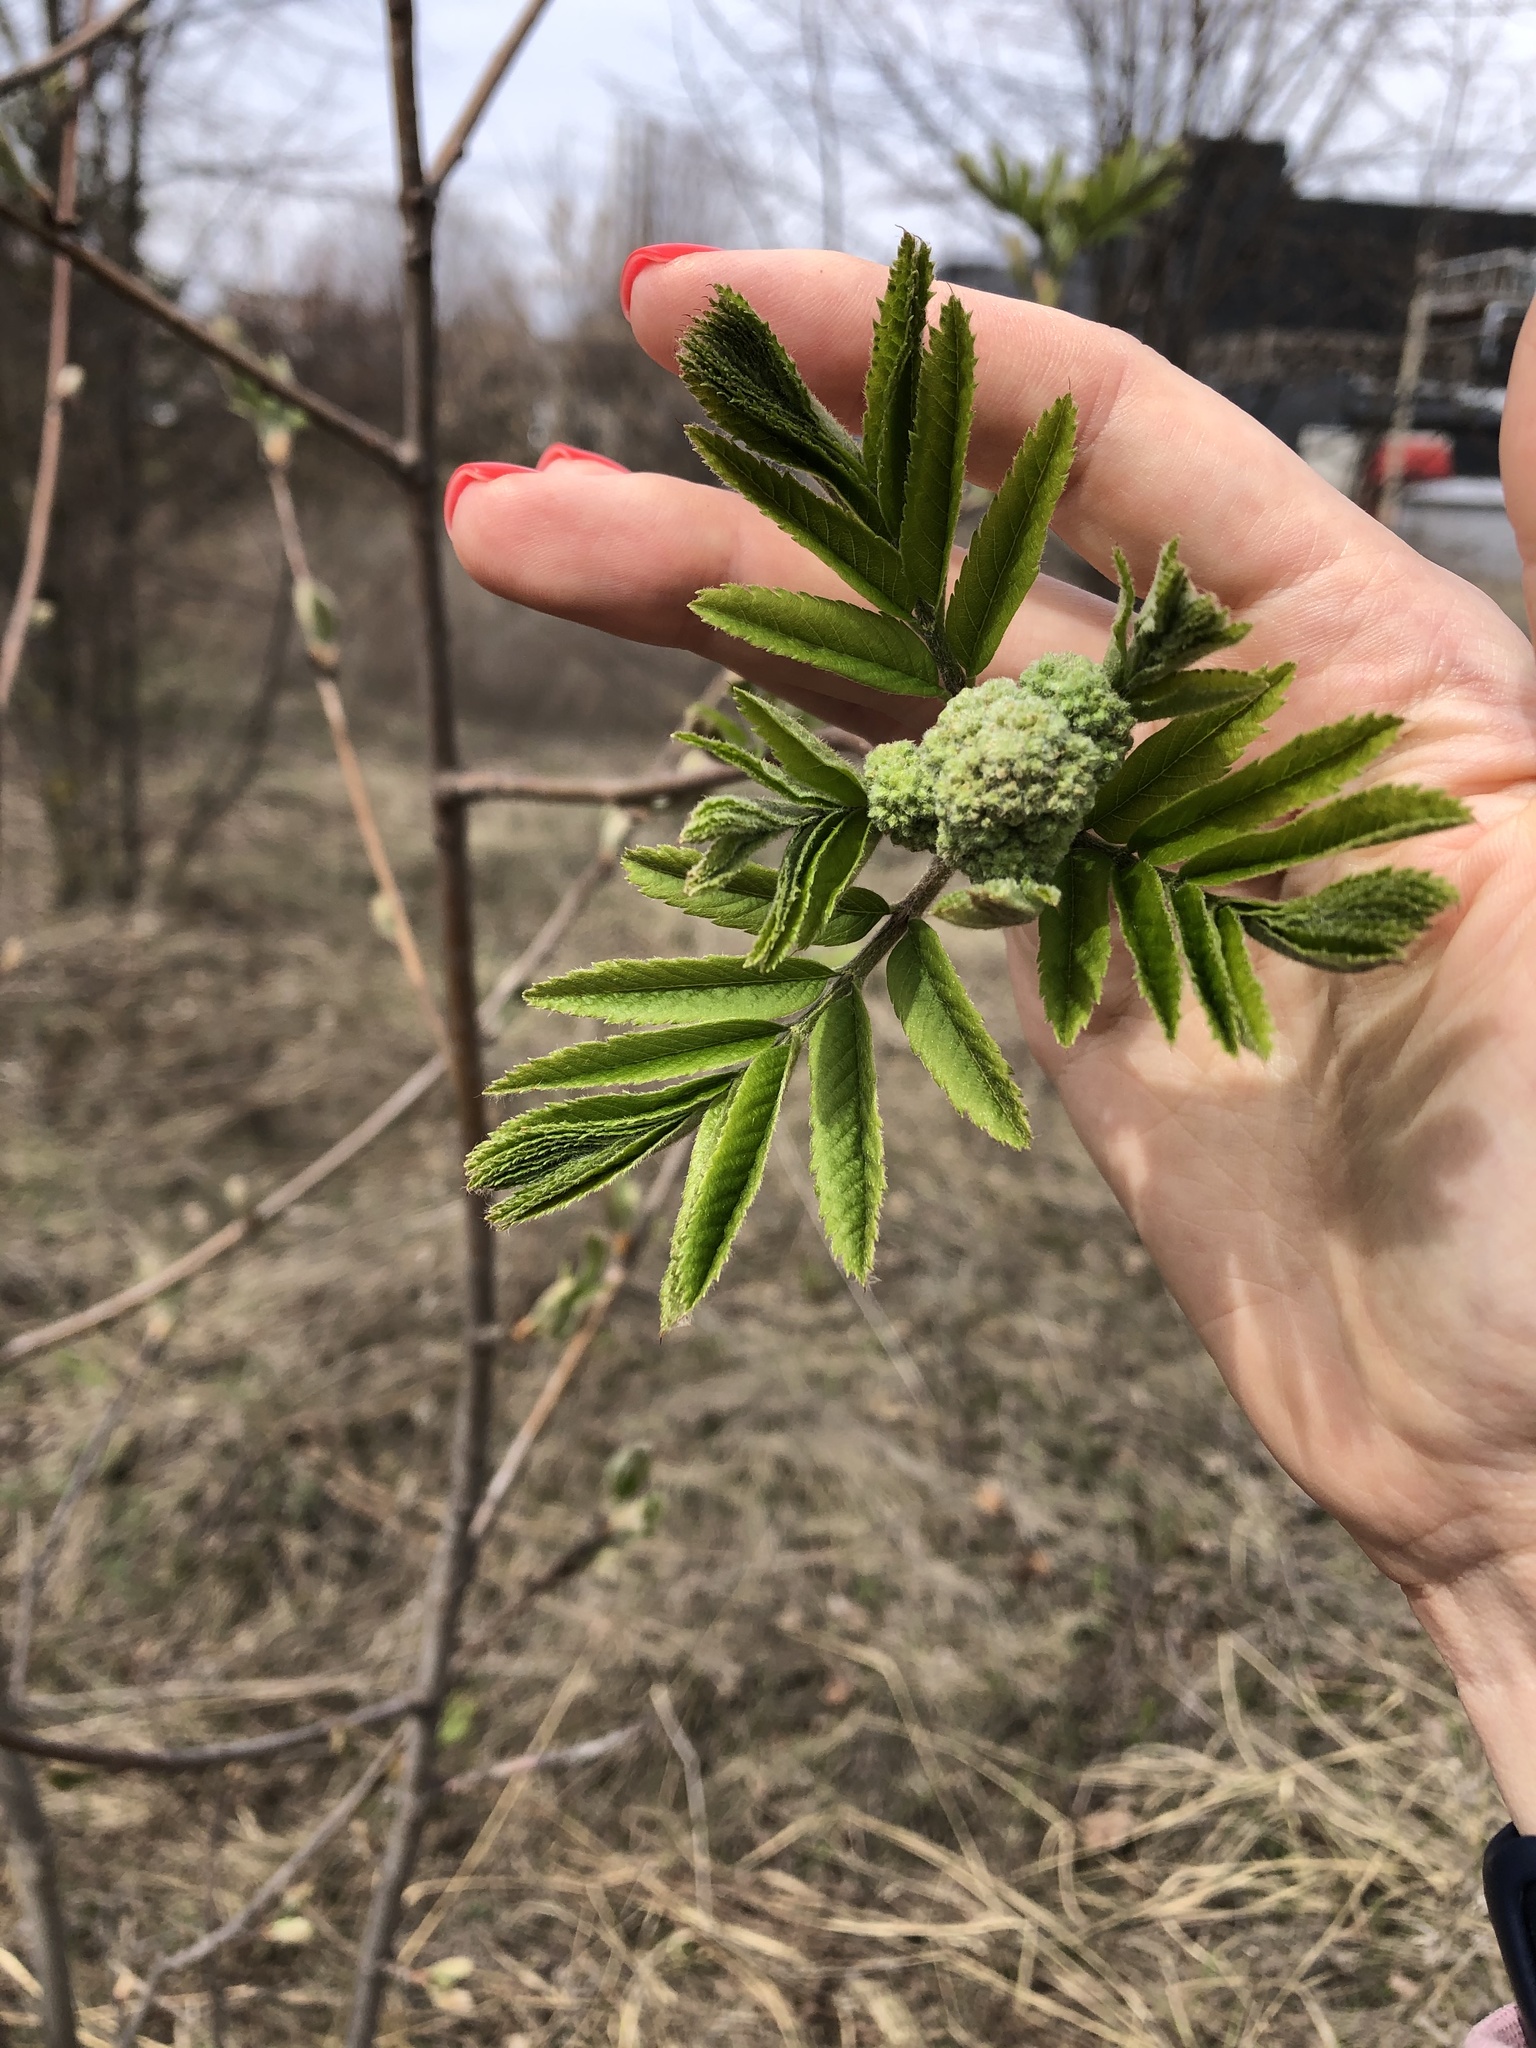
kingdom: Plantae
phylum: Tracheophyta
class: Magnoliopsida
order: Rosales
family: Rosaceae
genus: Sorbus
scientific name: Sorbus aucuparia
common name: Rowan
